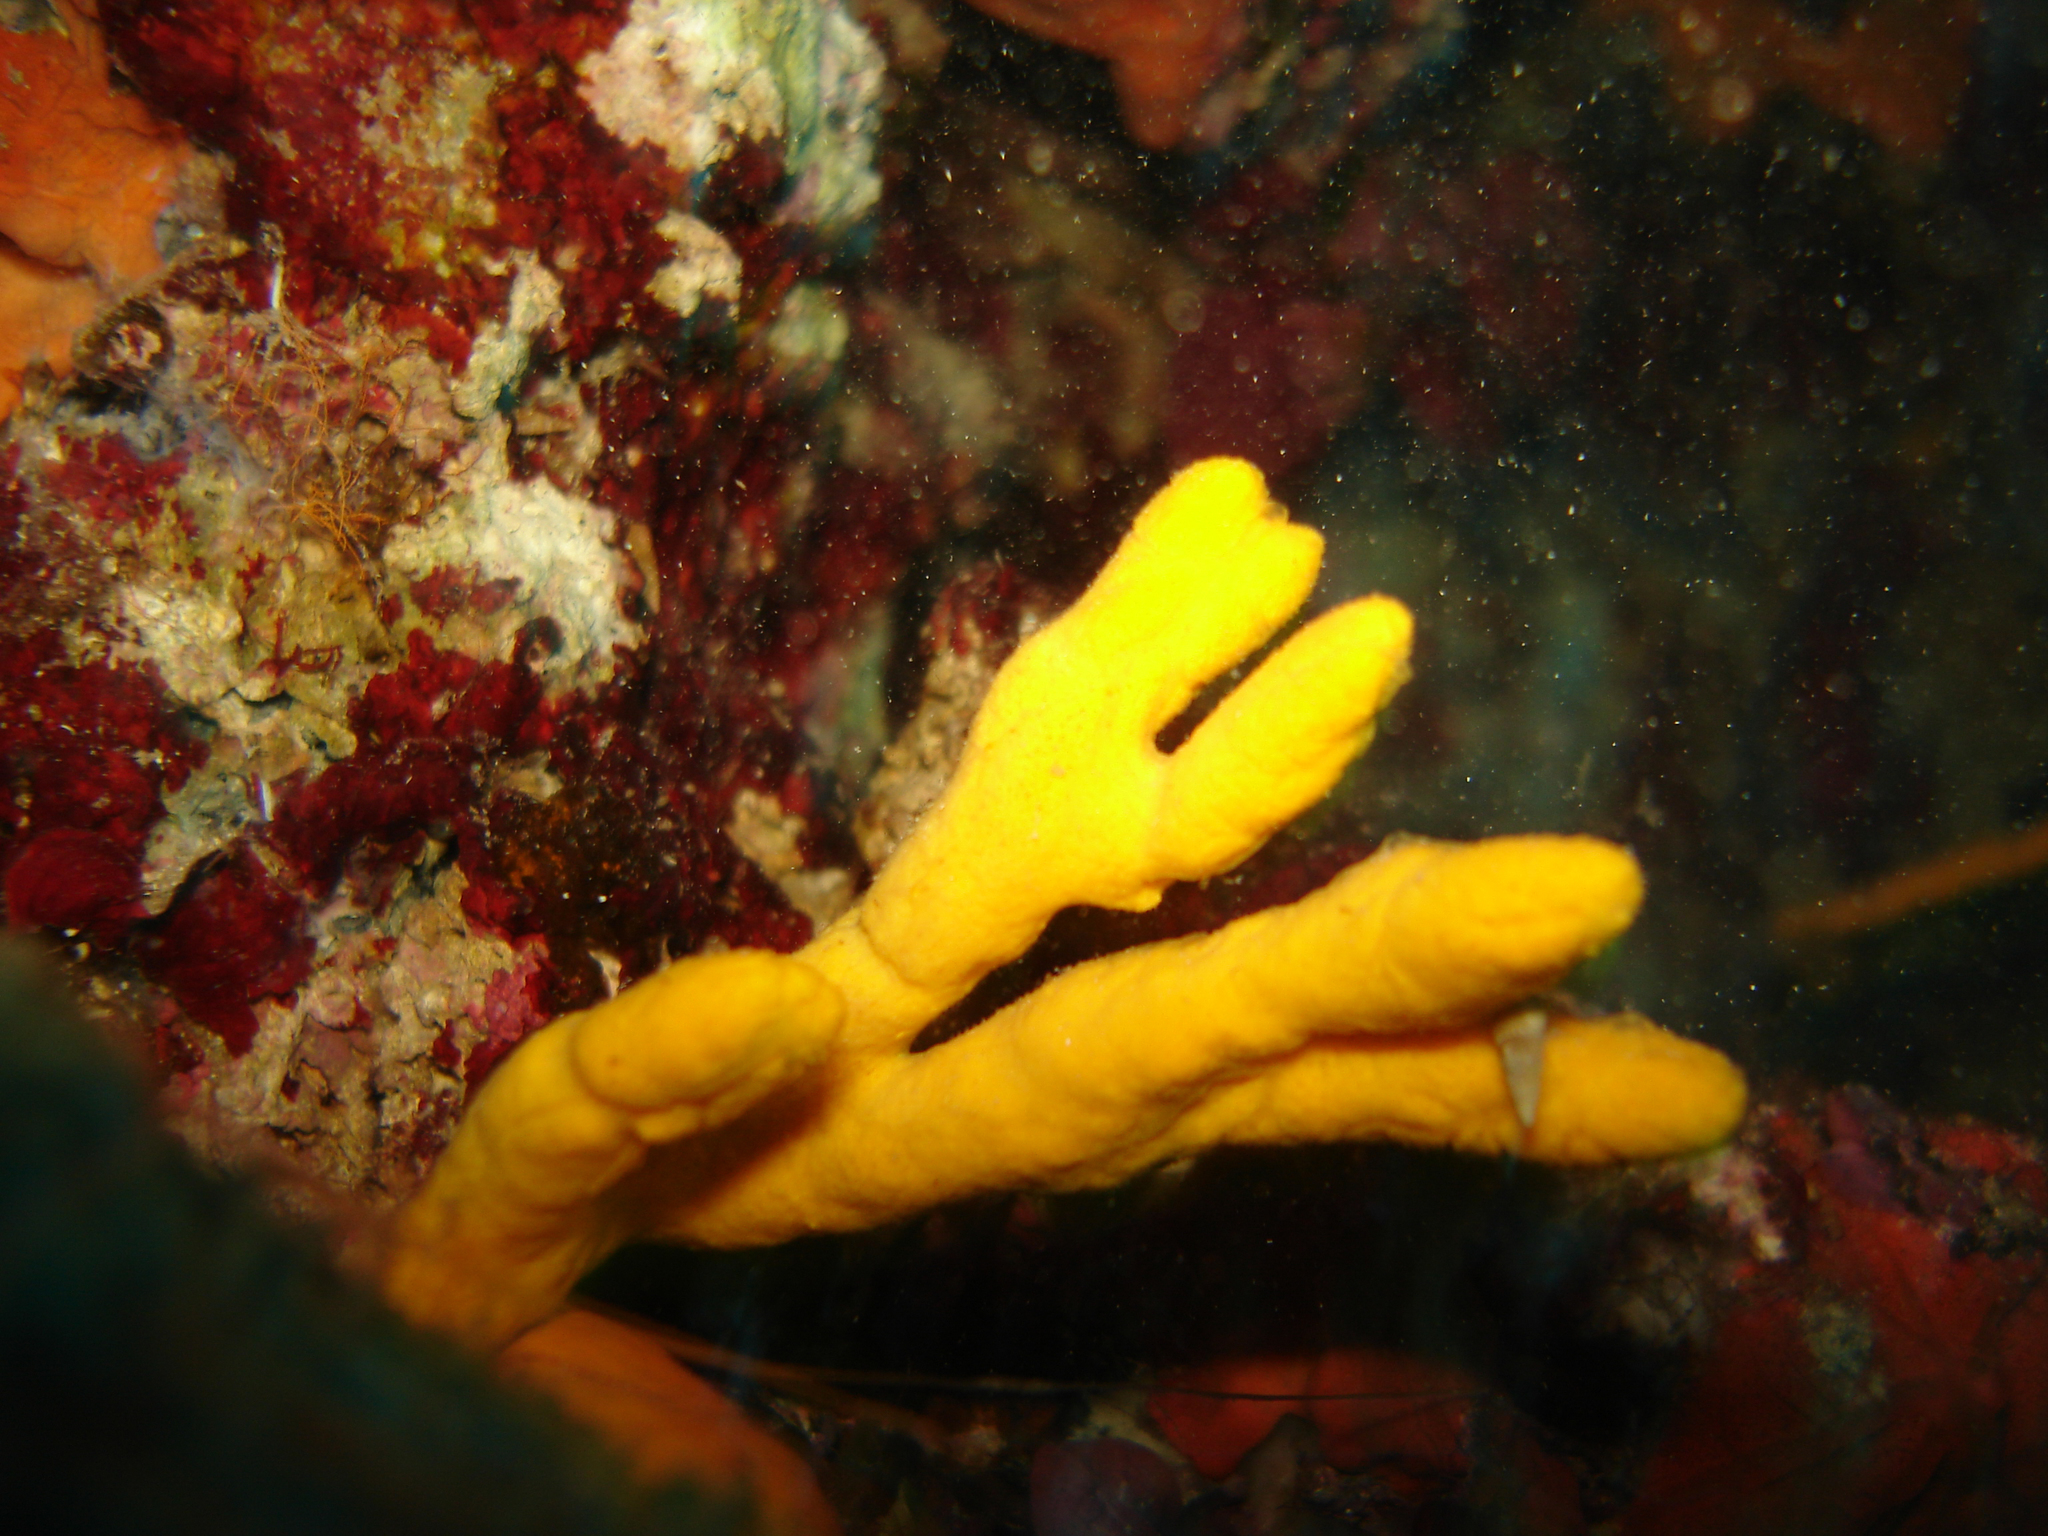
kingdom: Animalia
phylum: Porifera
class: Demospongiae
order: Axinellida
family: Axinellidae
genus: Axinella
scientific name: Axinella verrucosa
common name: Mediterranean mermaids glove
